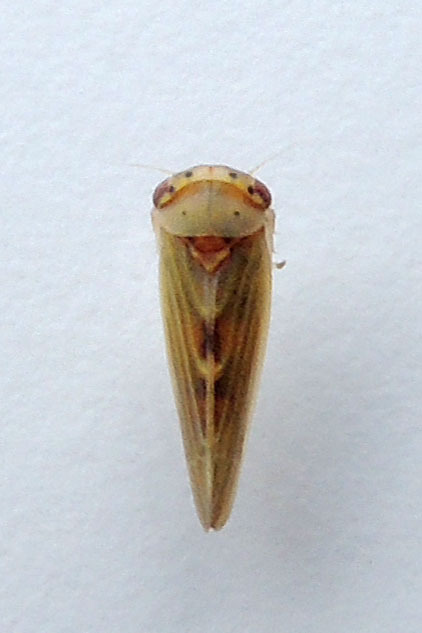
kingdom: Animalia
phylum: Arthropoda
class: Insecta
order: Hemiptera
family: Cicadellidae
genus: Agalliopsis
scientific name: Agalliopsis ancistra
